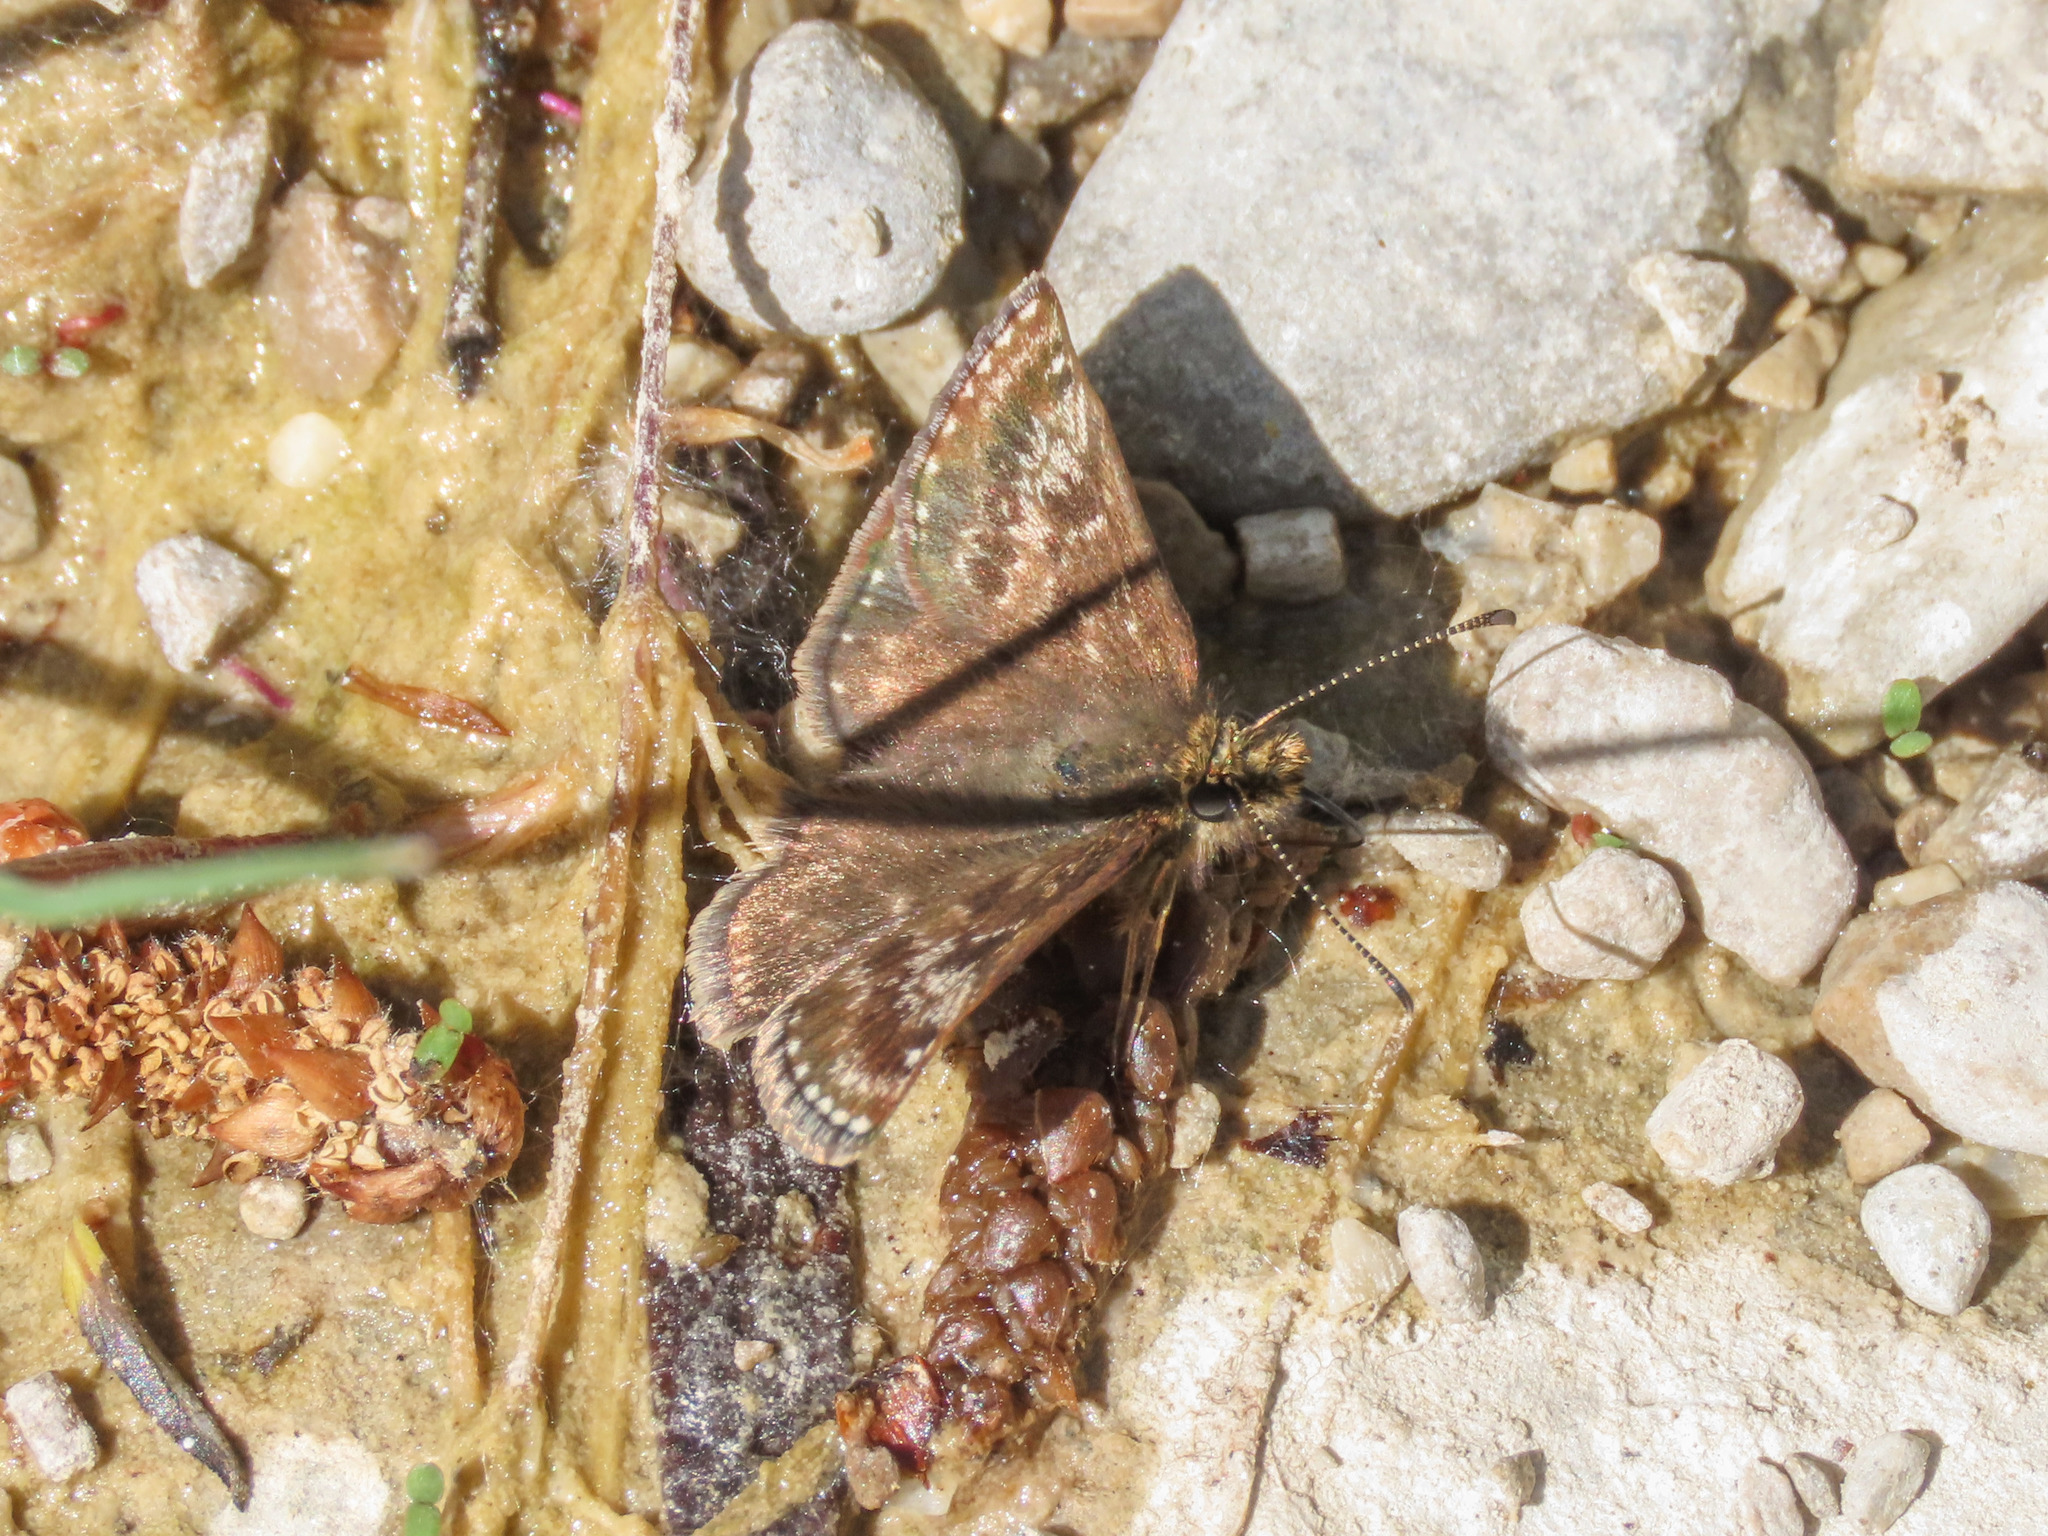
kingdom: Animalia
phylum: Arthropoda
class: Insecta
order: Lepidoptera
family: Hesperiidae
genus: Erynnis
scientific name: Erynnis tages
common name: Dingy skipper
